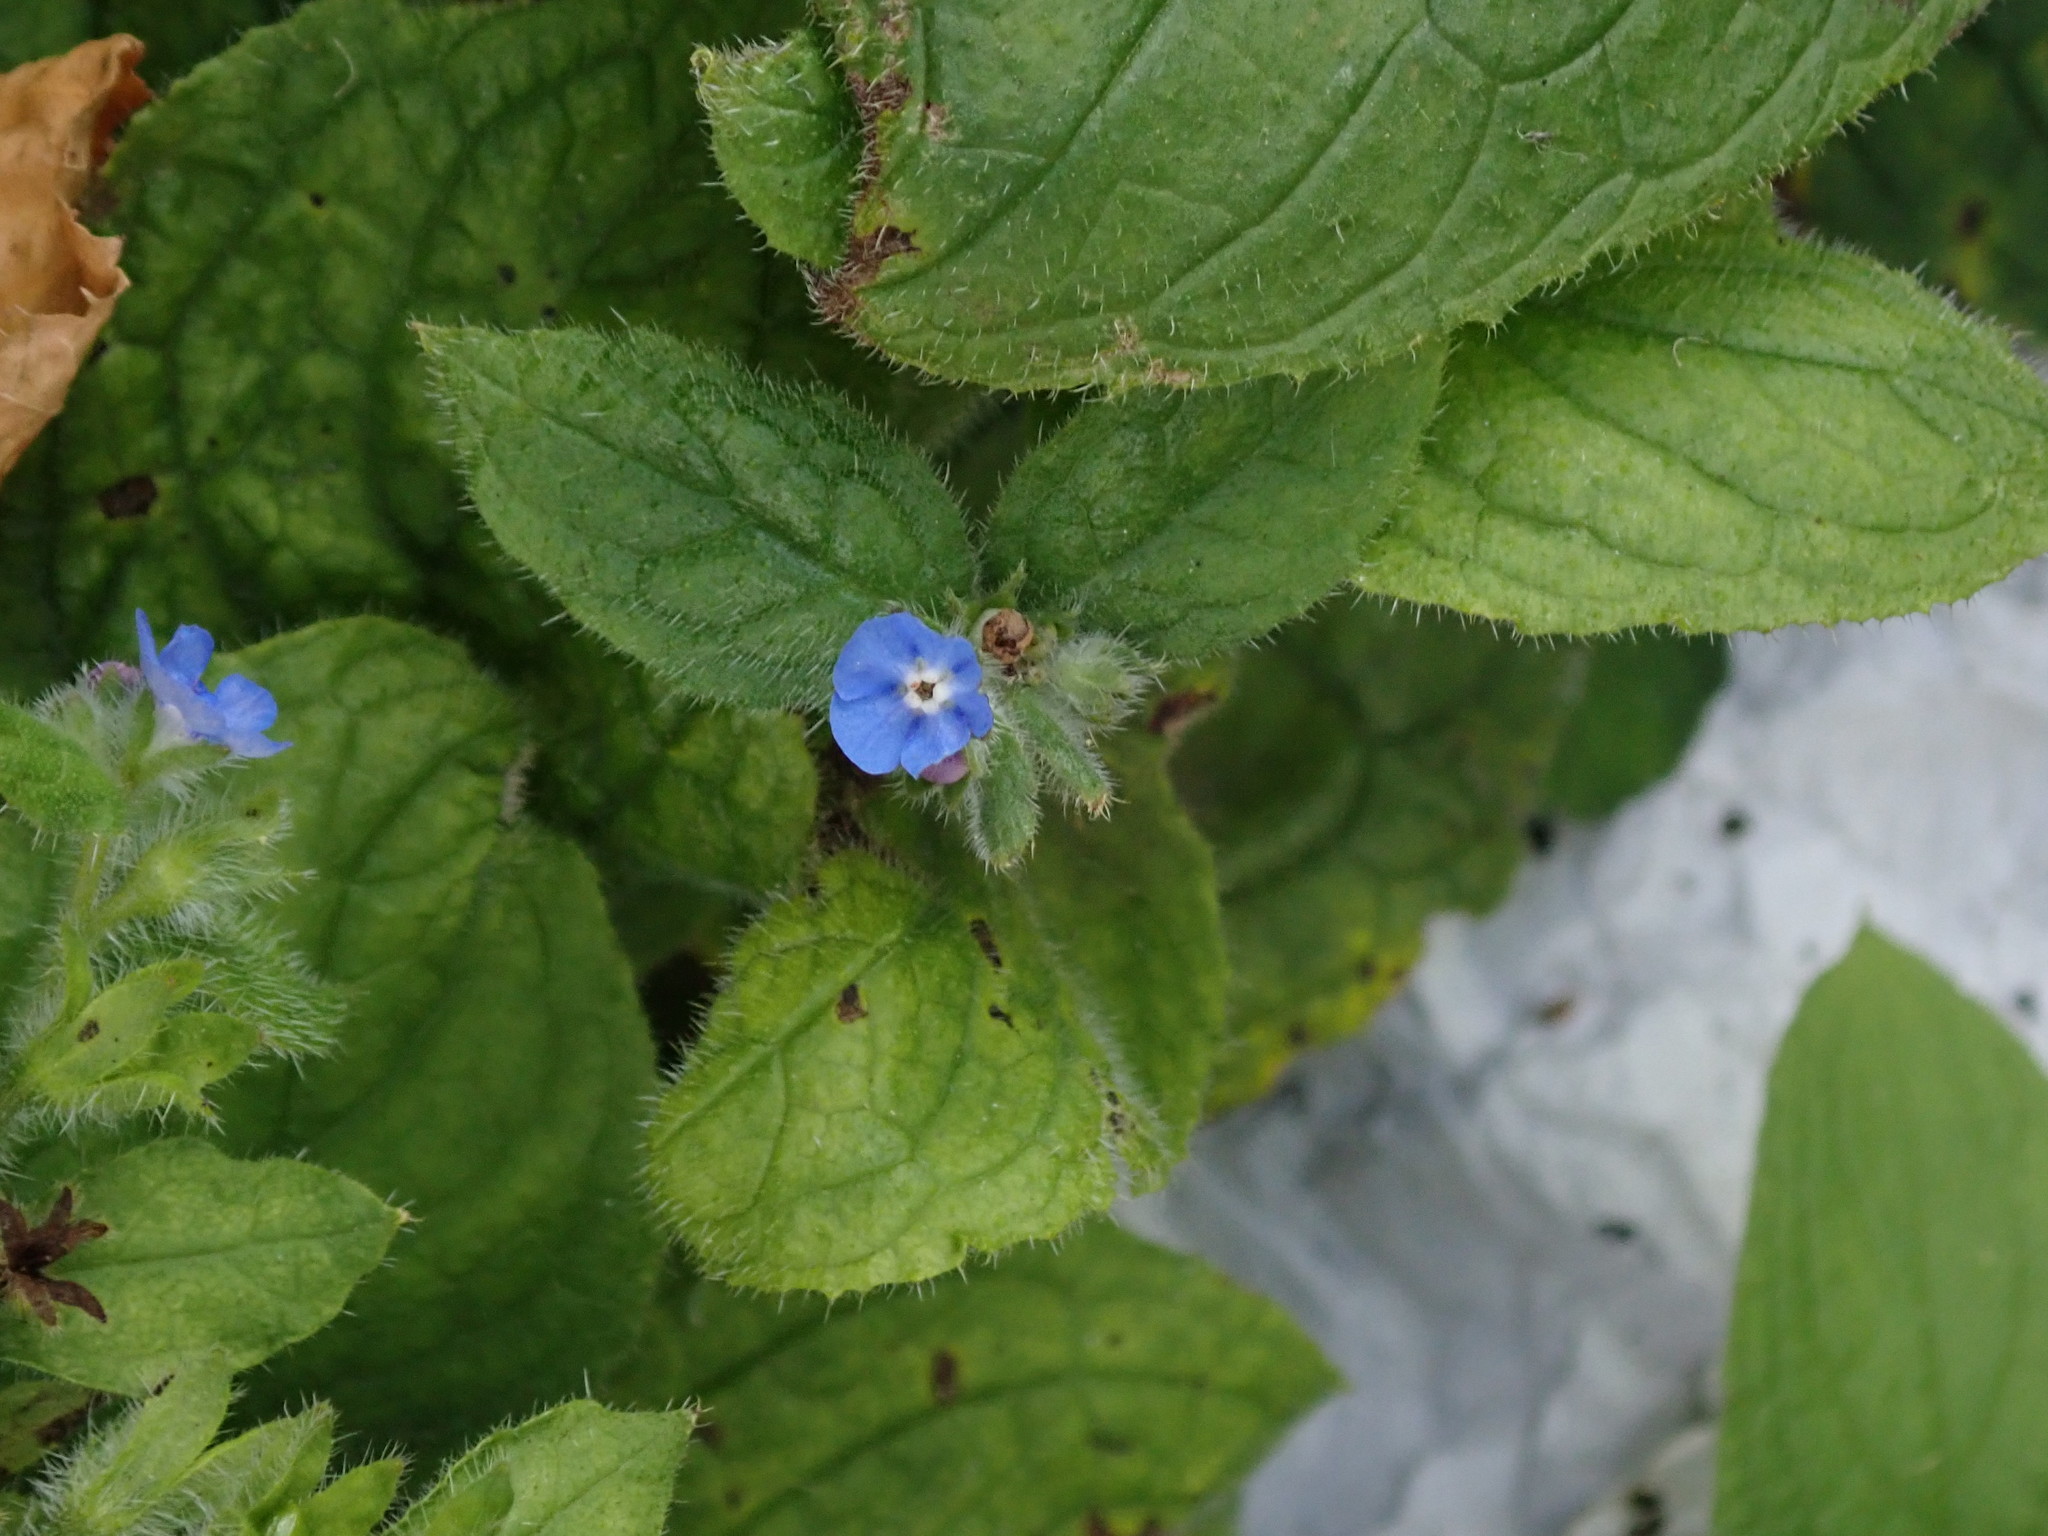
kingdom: Plantae
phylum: Tracheophyta
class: Magnoliopsida
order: Boraginales
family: Boraginaceae
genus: Pentaglottis
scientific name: Pentaglottis sempervirens
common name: Green alkanet
